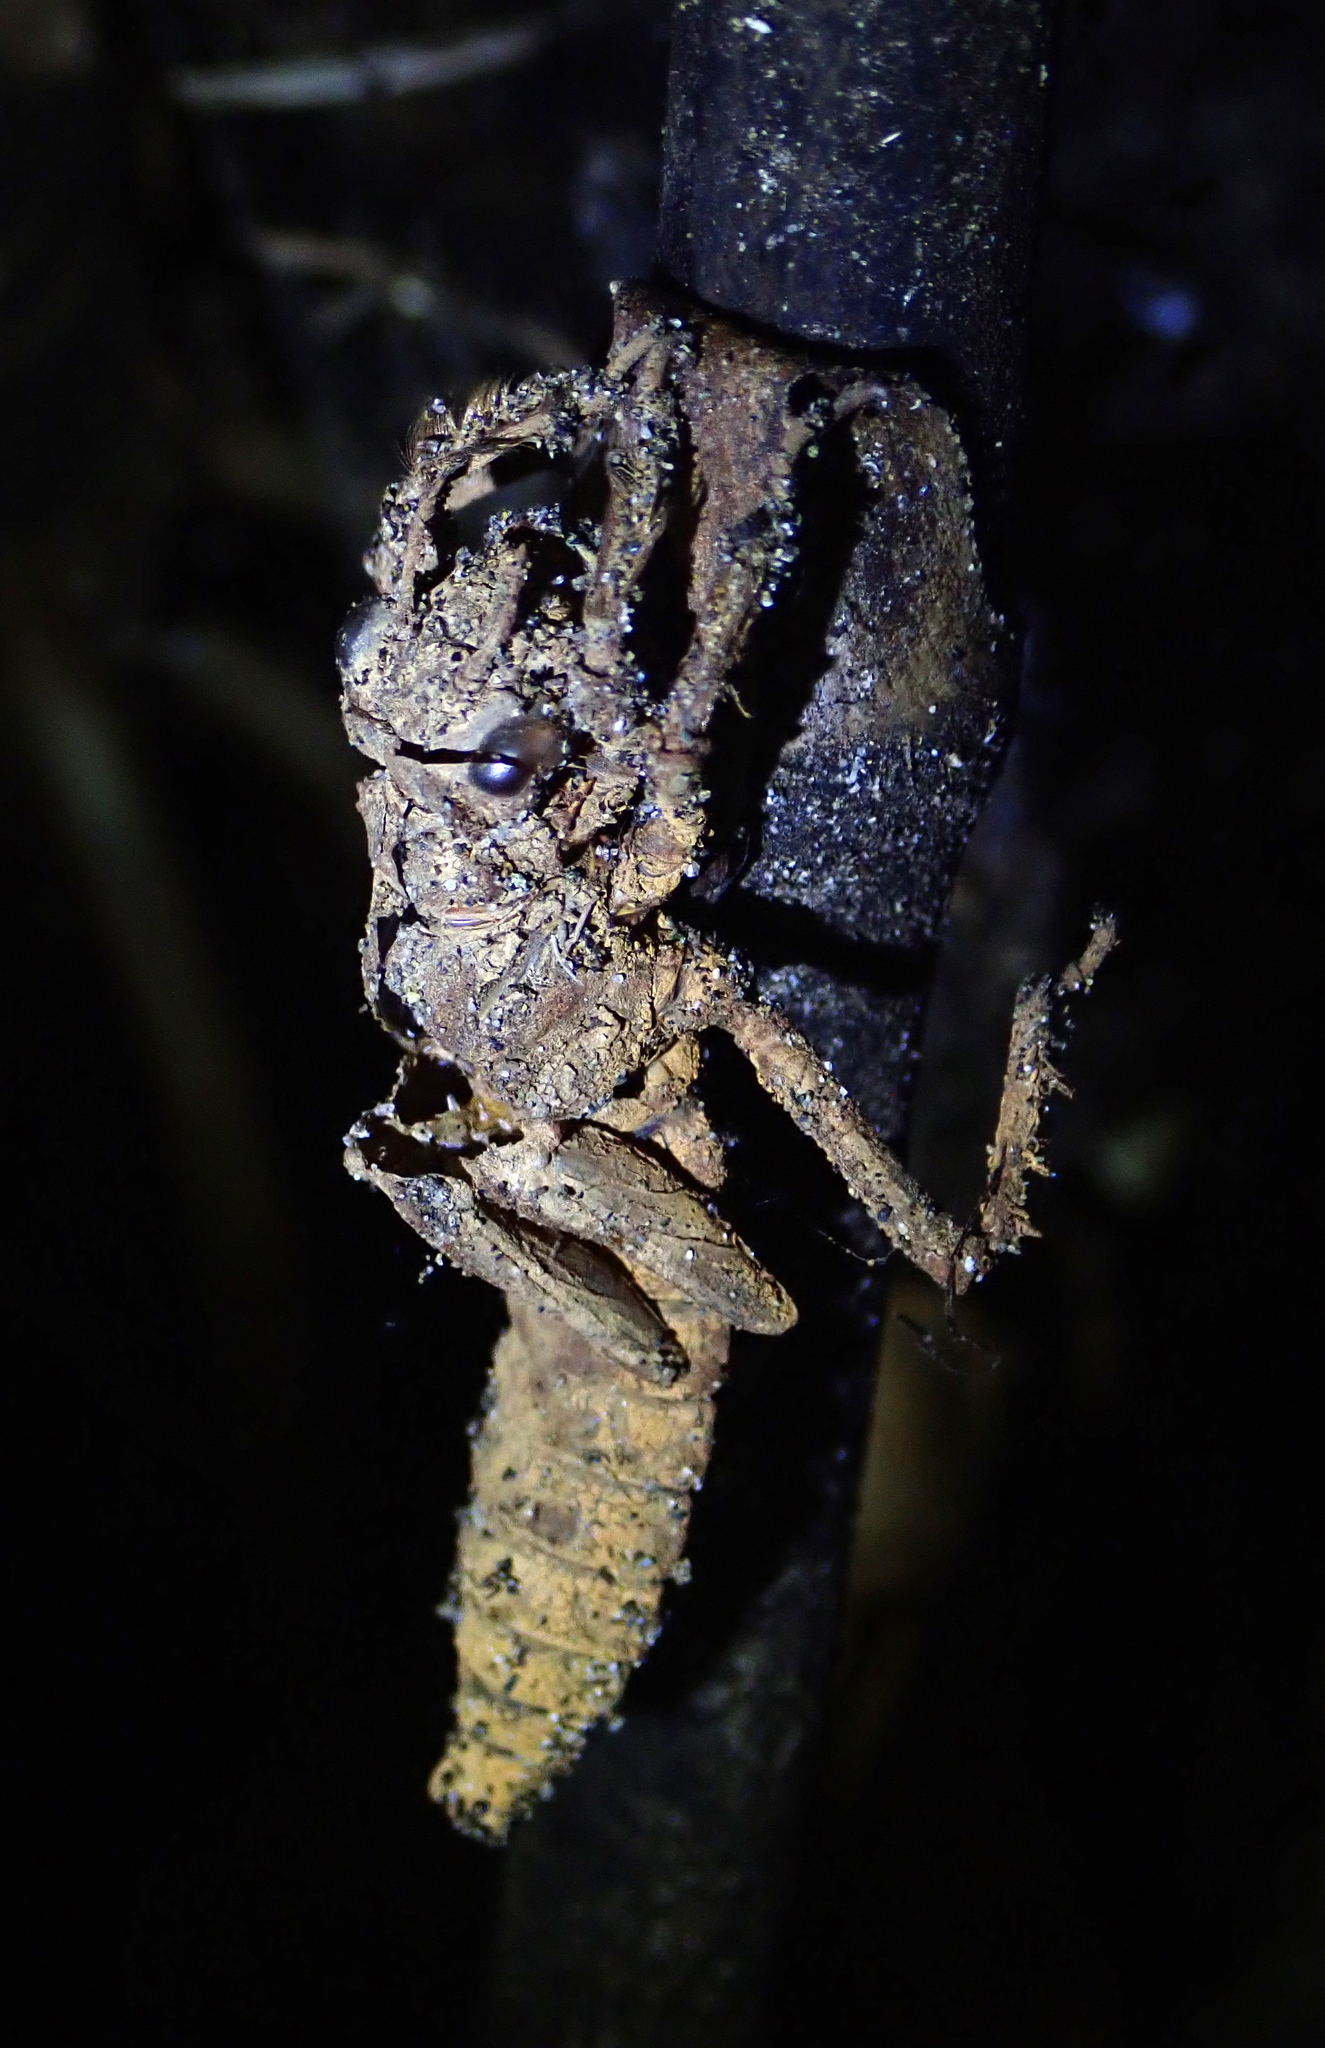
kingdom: Animalia
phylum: Arthropoda
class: Insecta
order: Odonata
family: Petaluridae
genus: Uropetala
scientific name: Uropetala carovei
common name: Bush giant dragonfly
